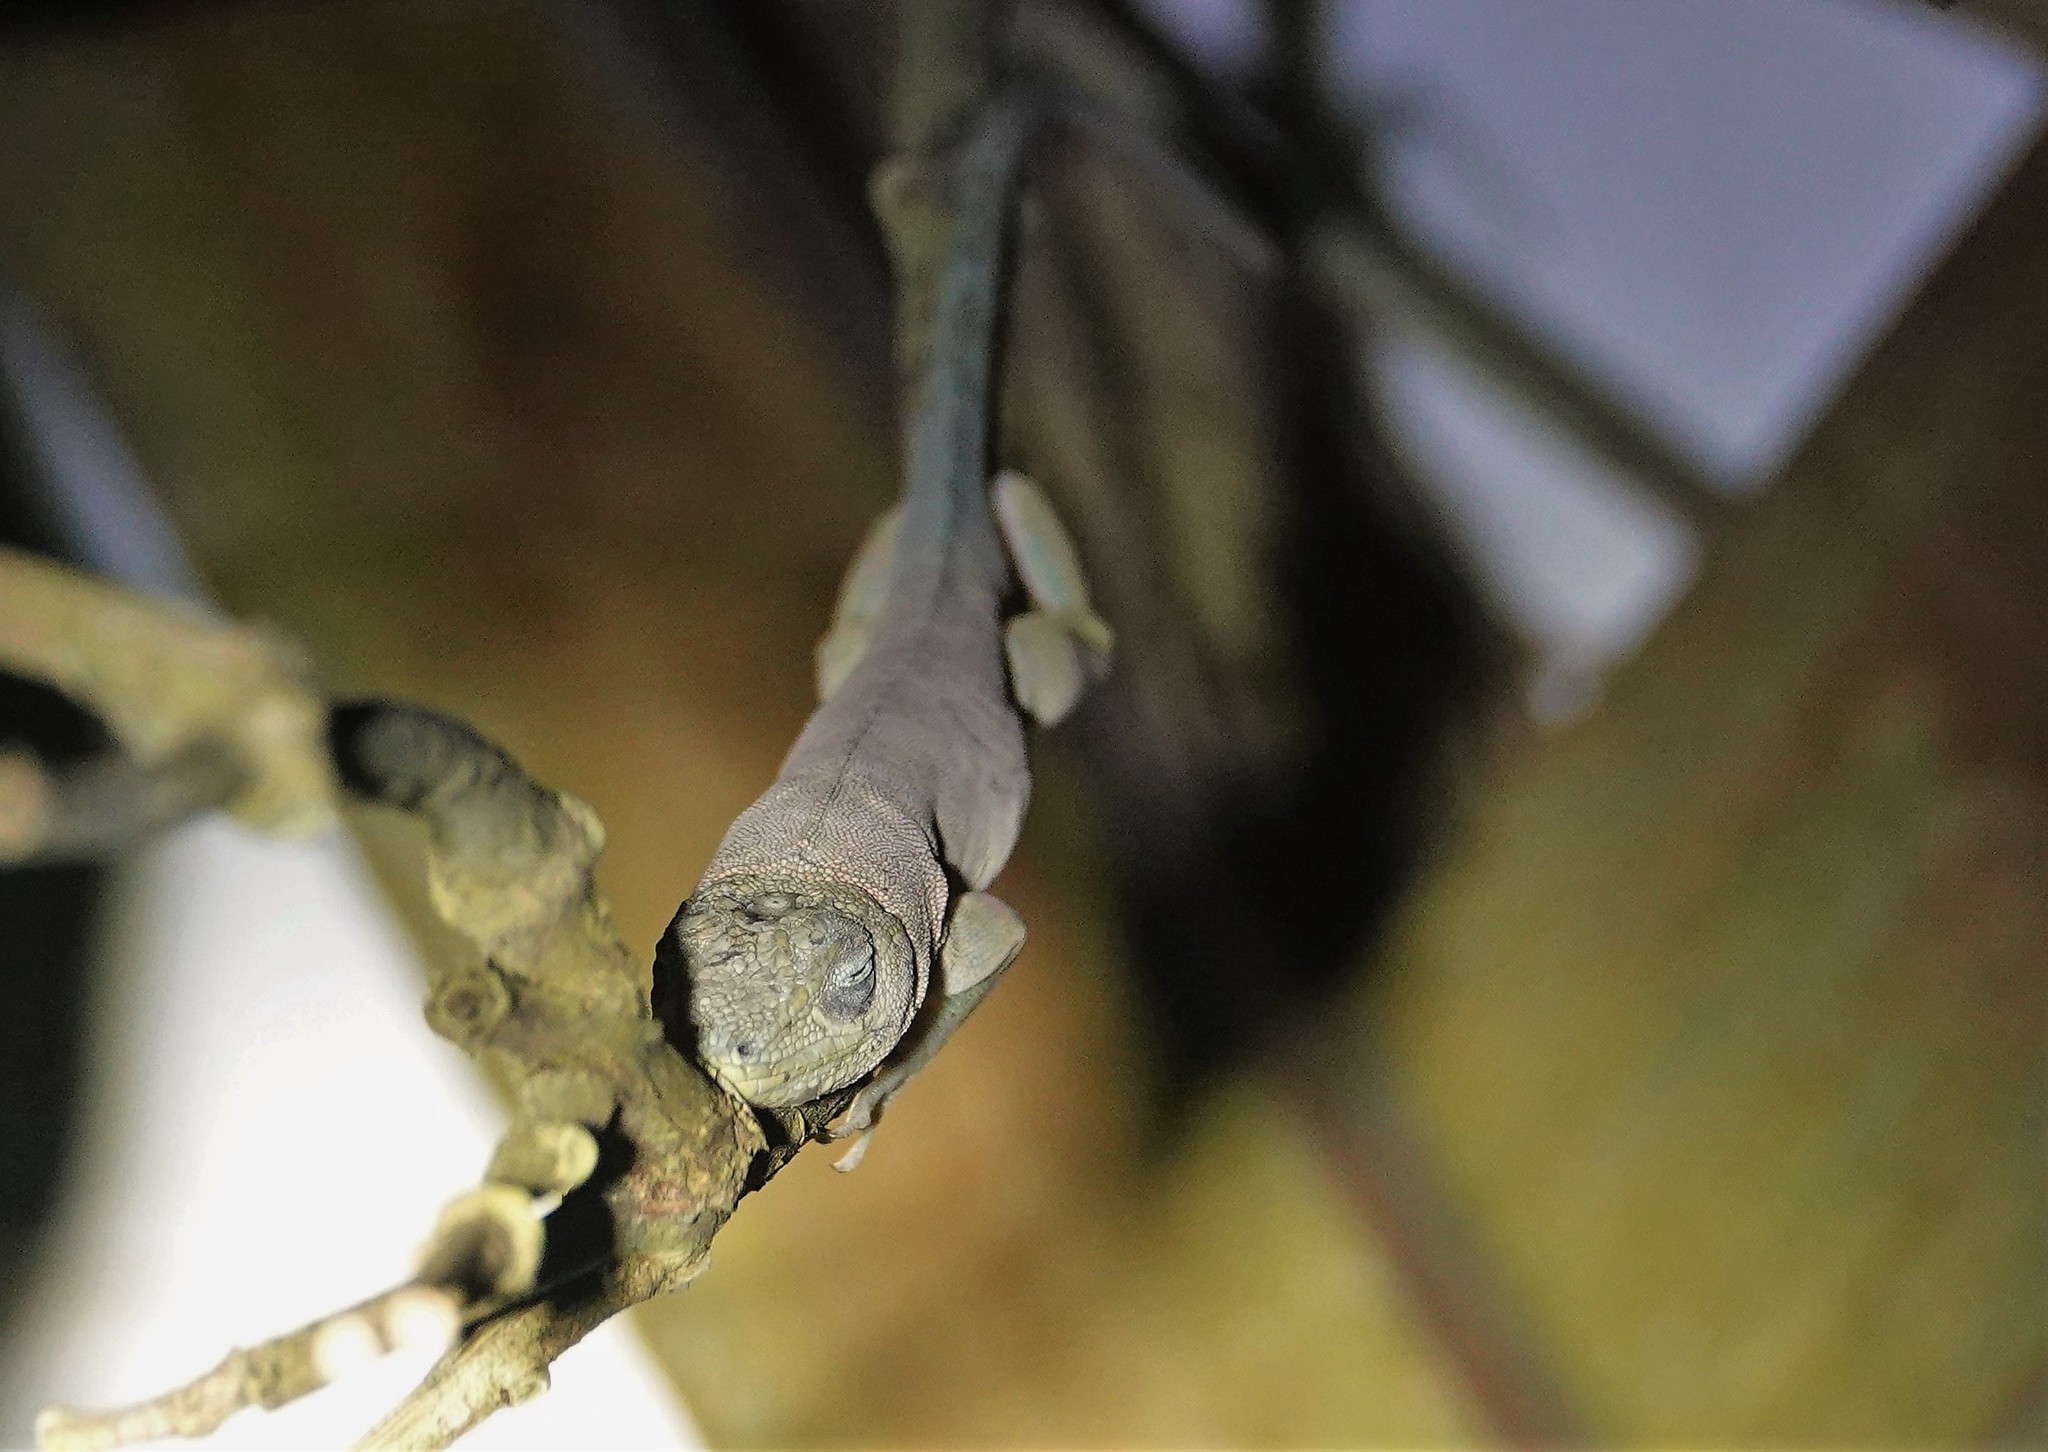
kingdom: Animalia
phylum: Chordata
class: Squamata
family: Dactyloidae
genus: Anolis
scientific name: Anolis aeneus
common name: Bronze anole
